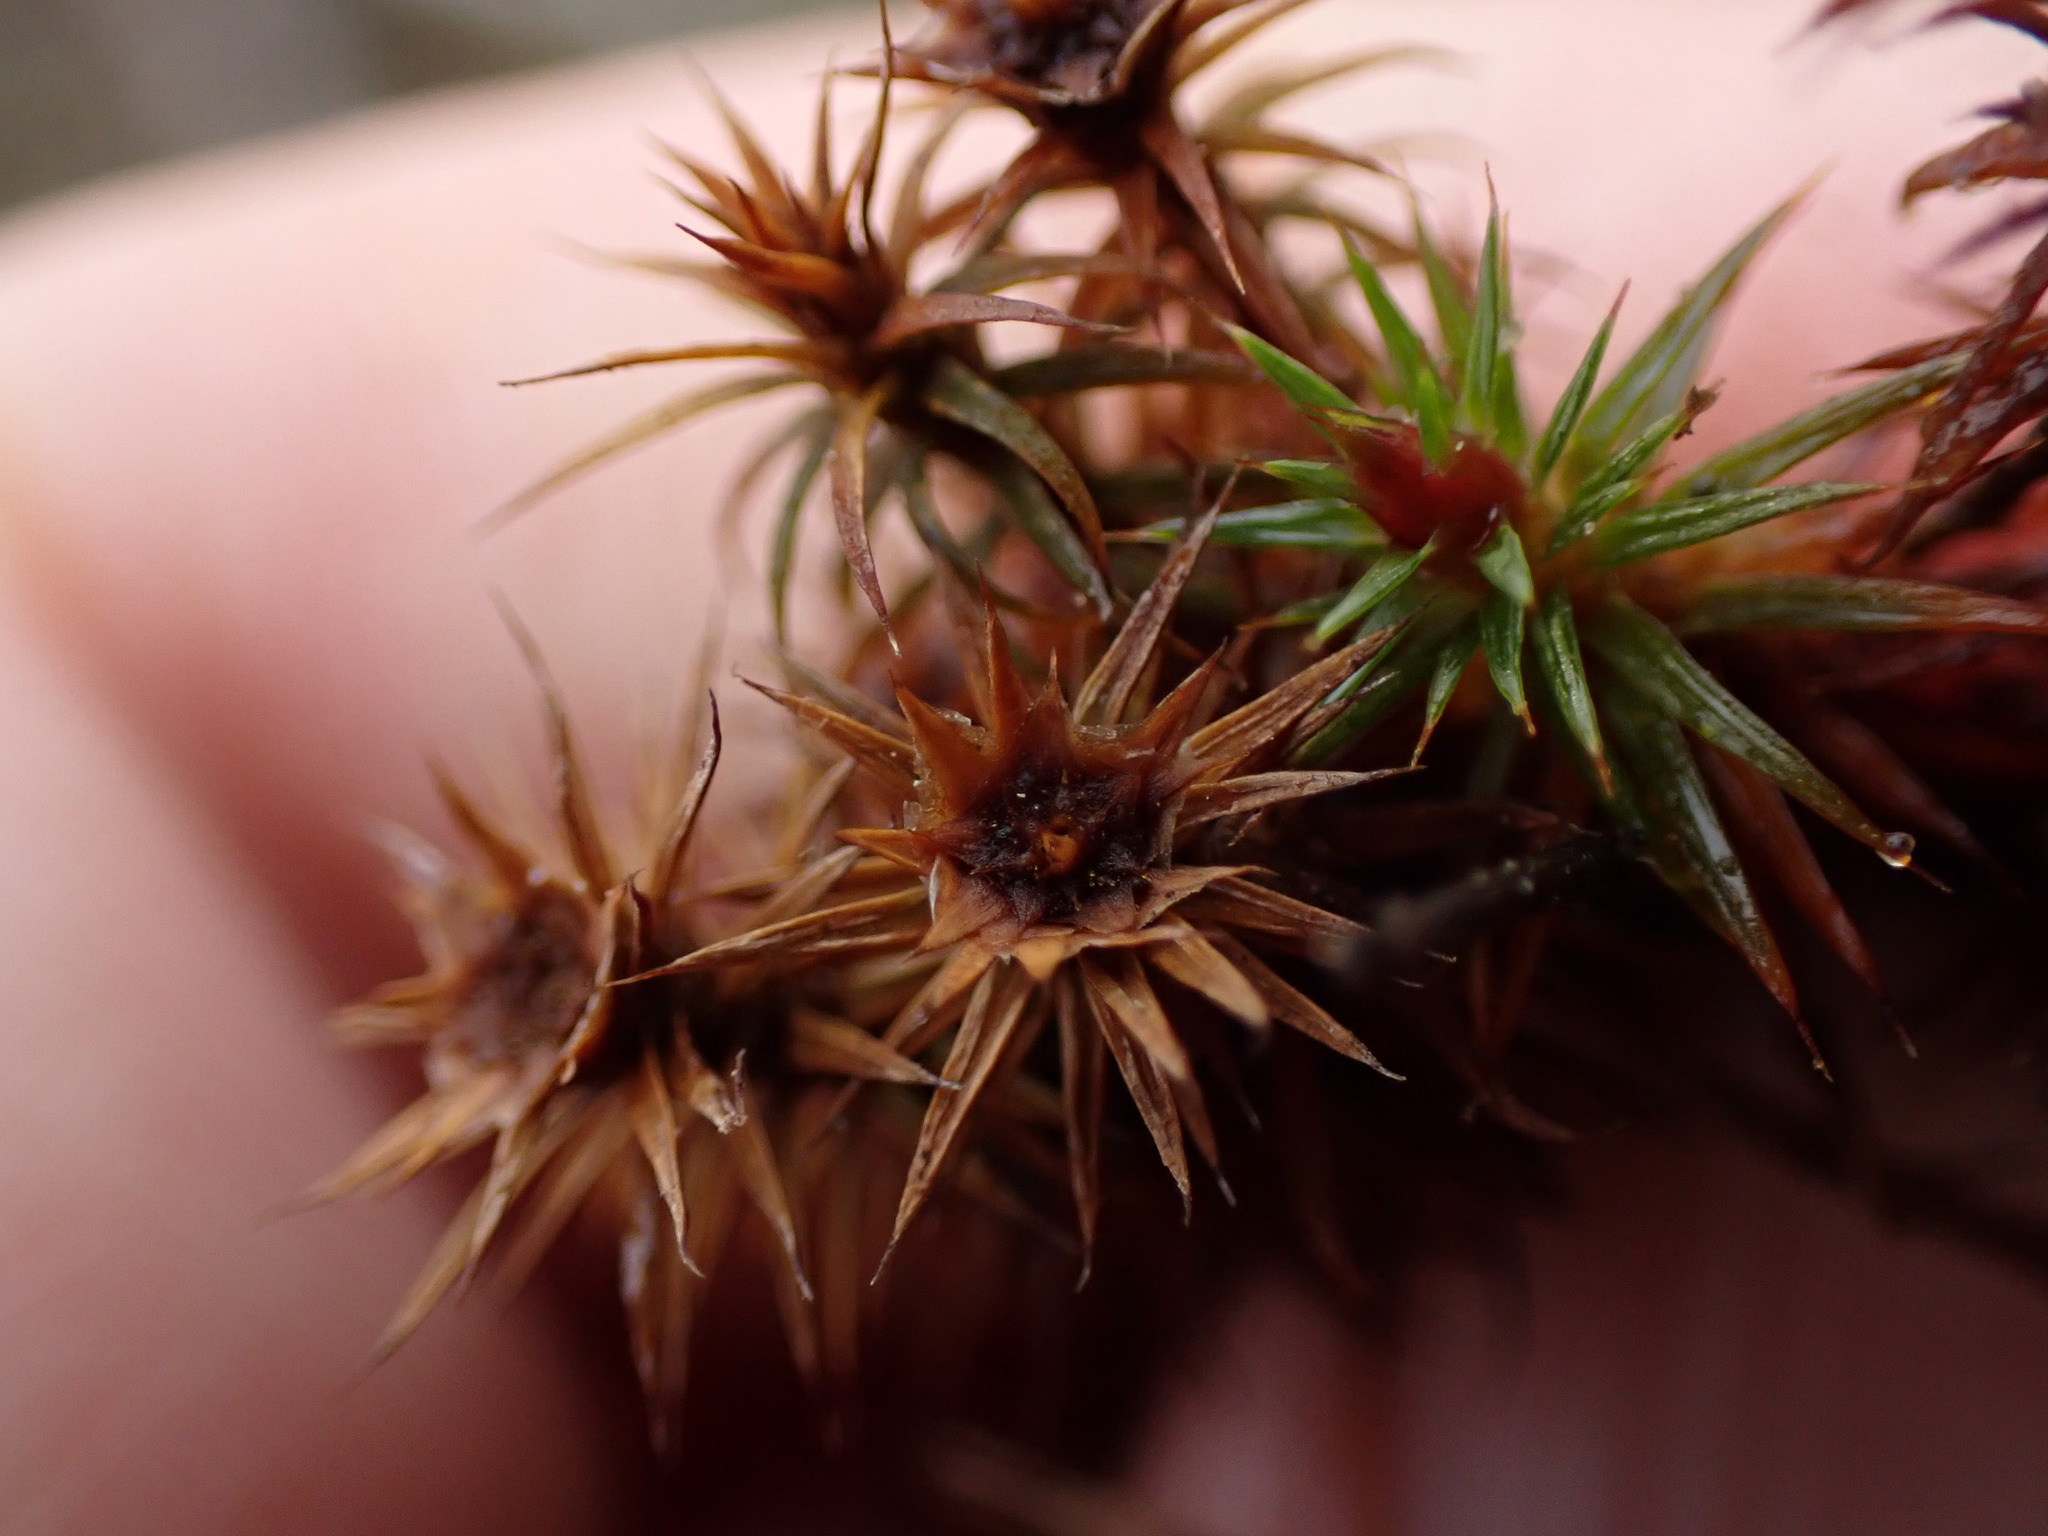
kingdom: Plantae
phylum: Bryophyta
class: Polytrichopsida
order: Polytrichales
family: Polytrichaceae
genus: Polytrichum
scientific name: Polytrichum juniperinum
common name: Juniper haircap moss
